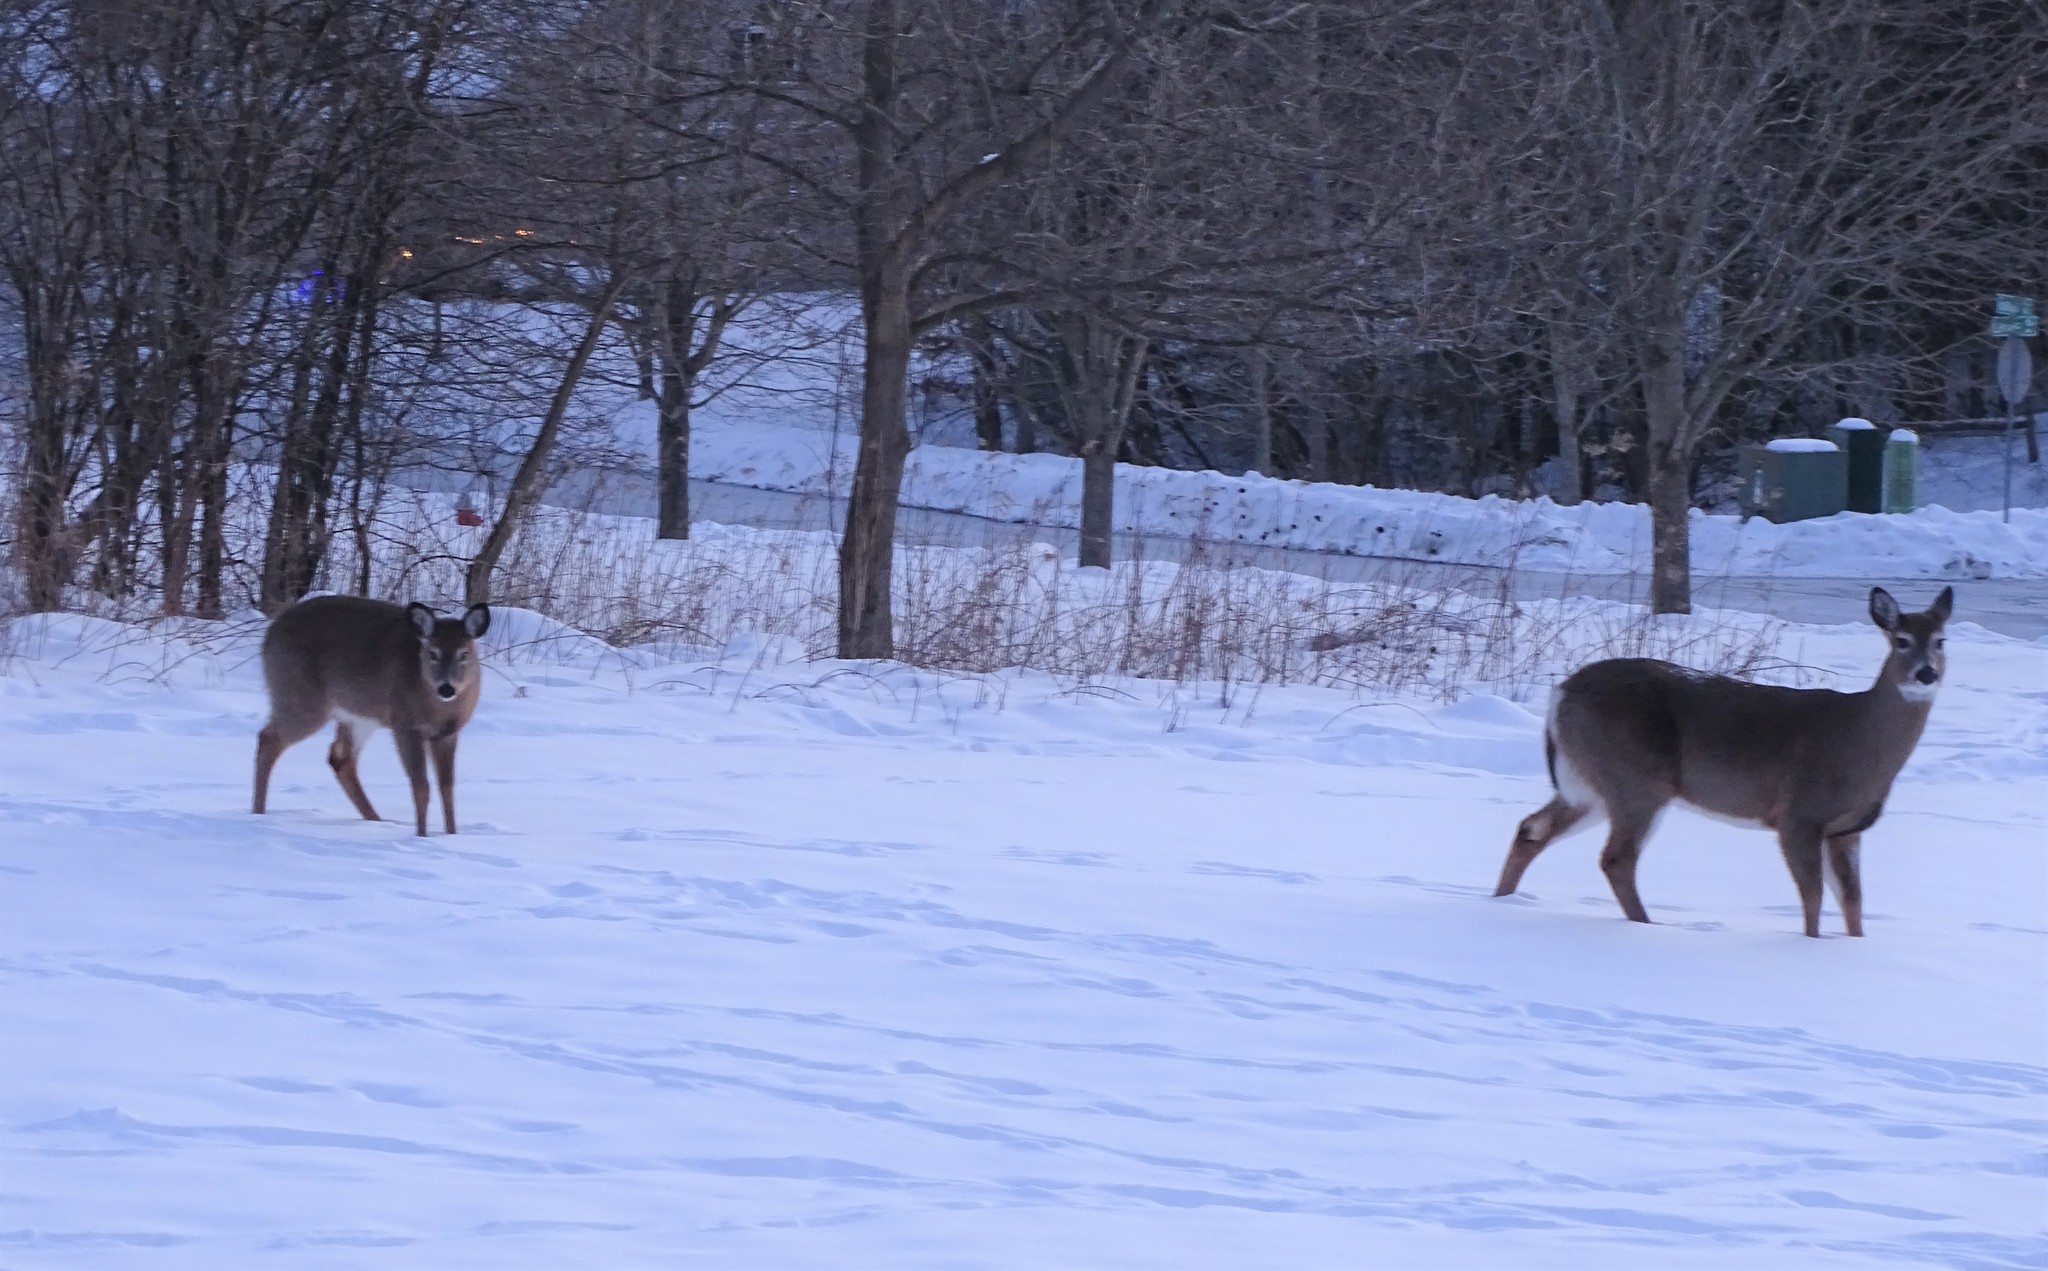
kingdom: Animalia
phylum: Chordata
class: Mammalia
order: Artiodactyla
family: Cervidae
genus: Odocoileus
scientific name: Odocoileus virginianus
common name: White-tailed deer
